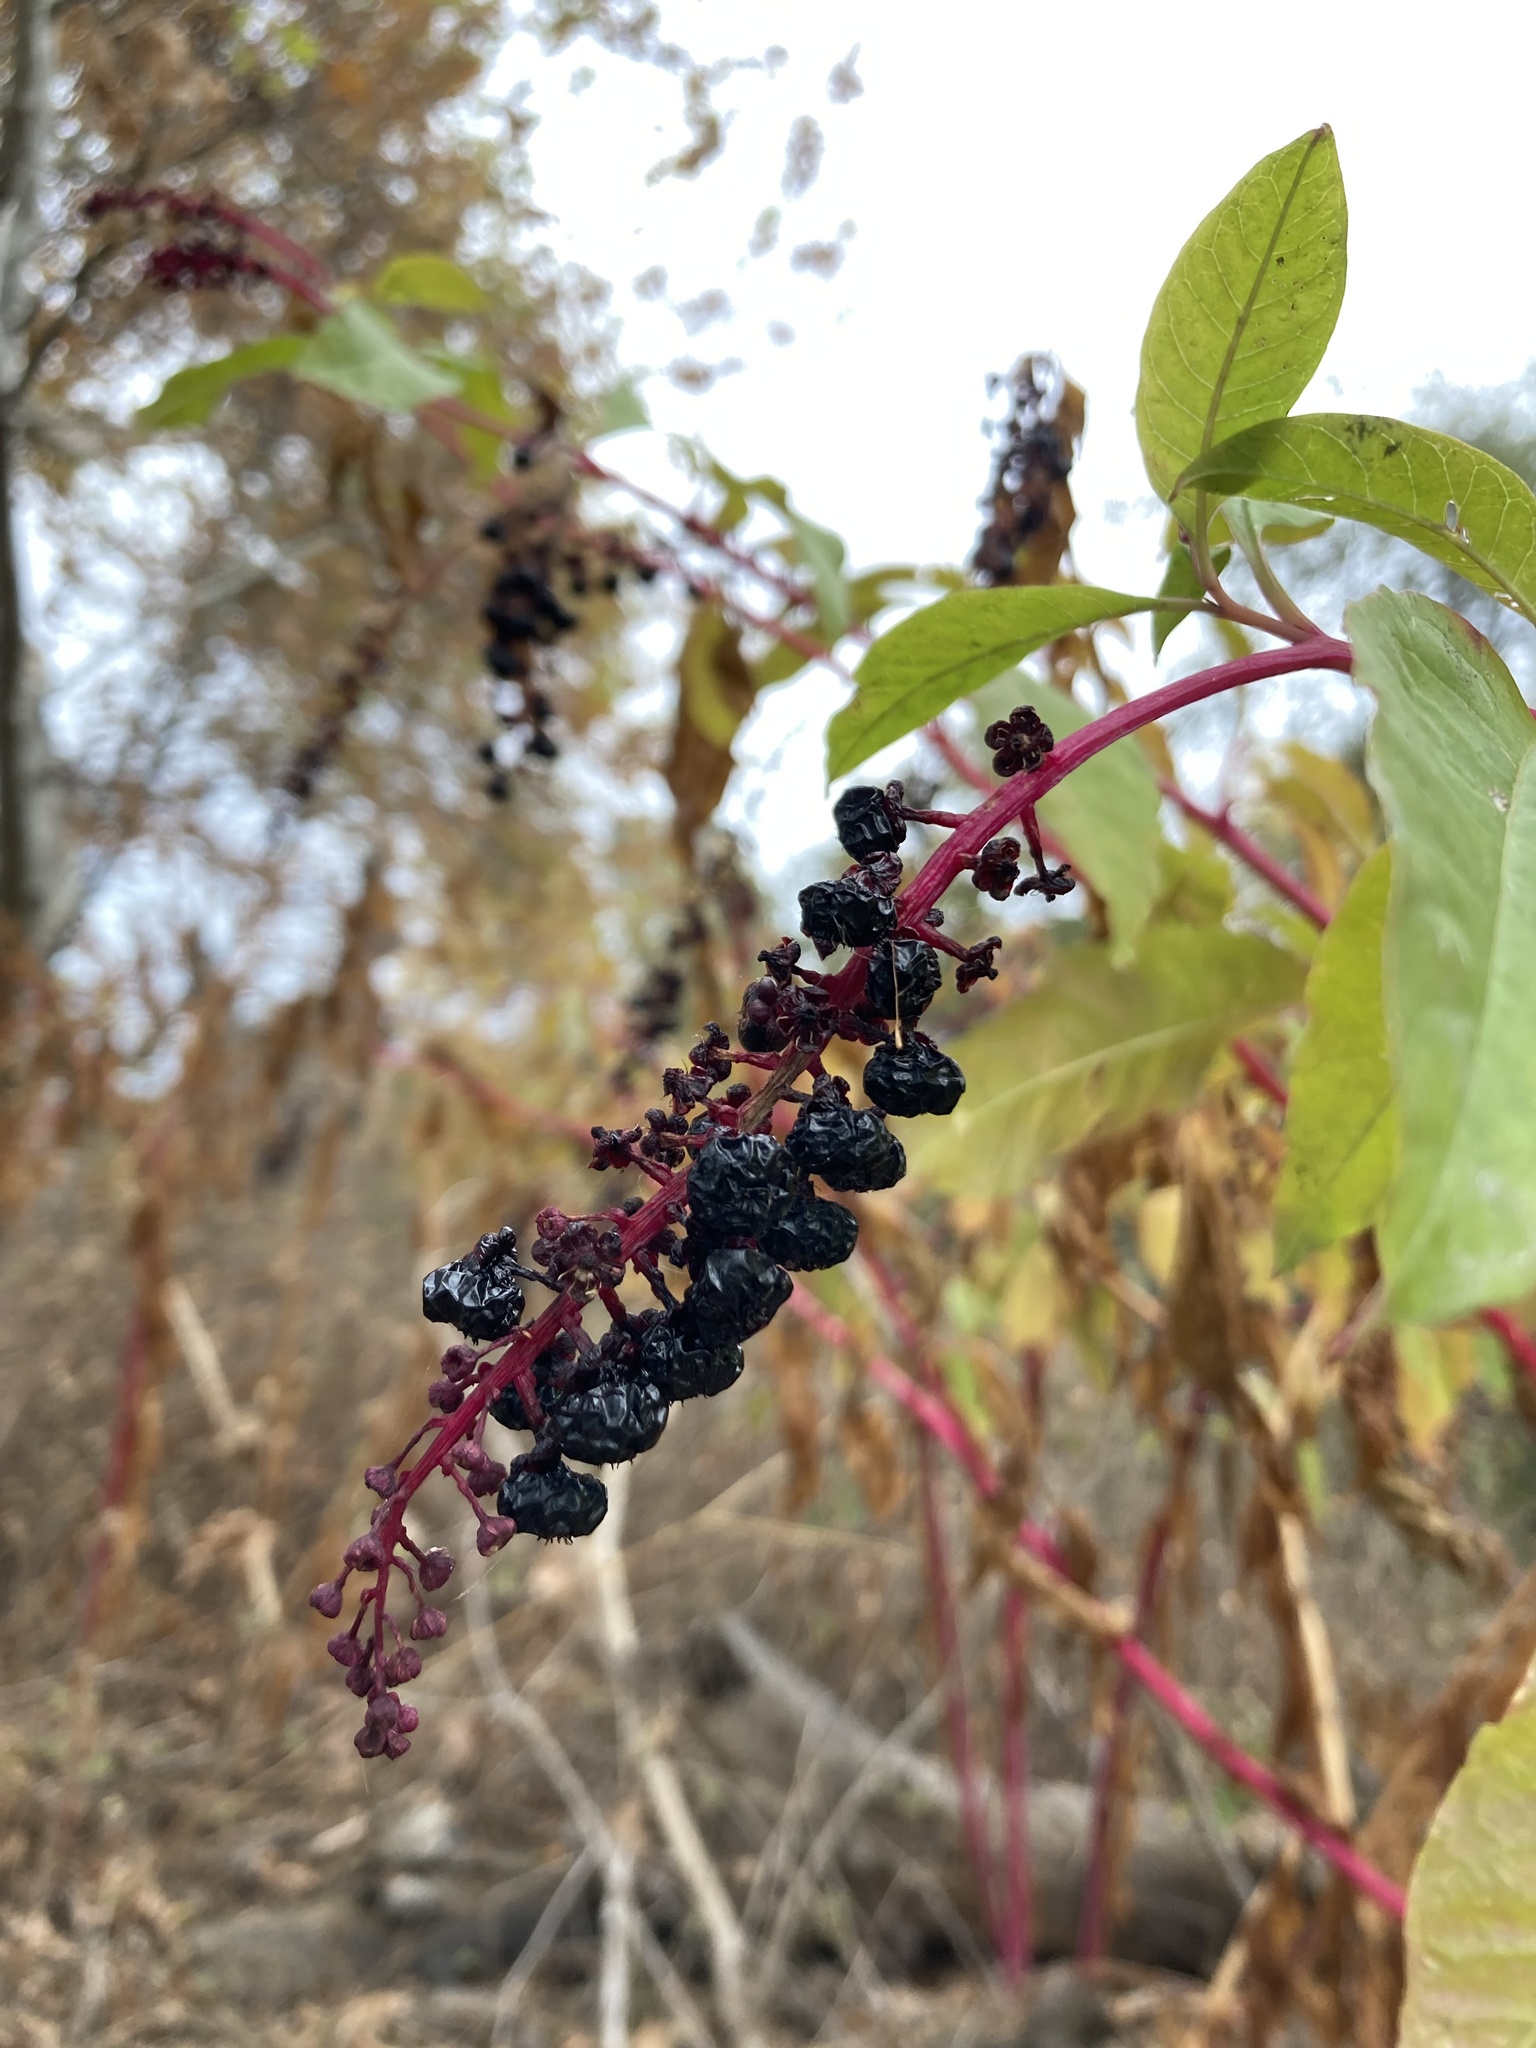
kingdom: Plantae
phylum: Tracheophyta
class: Magnoliopsida
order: Caryophyllales
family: Phytolaccaceae
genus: Phytolacca
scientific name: Phytolacca americana
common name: American pokeweed
